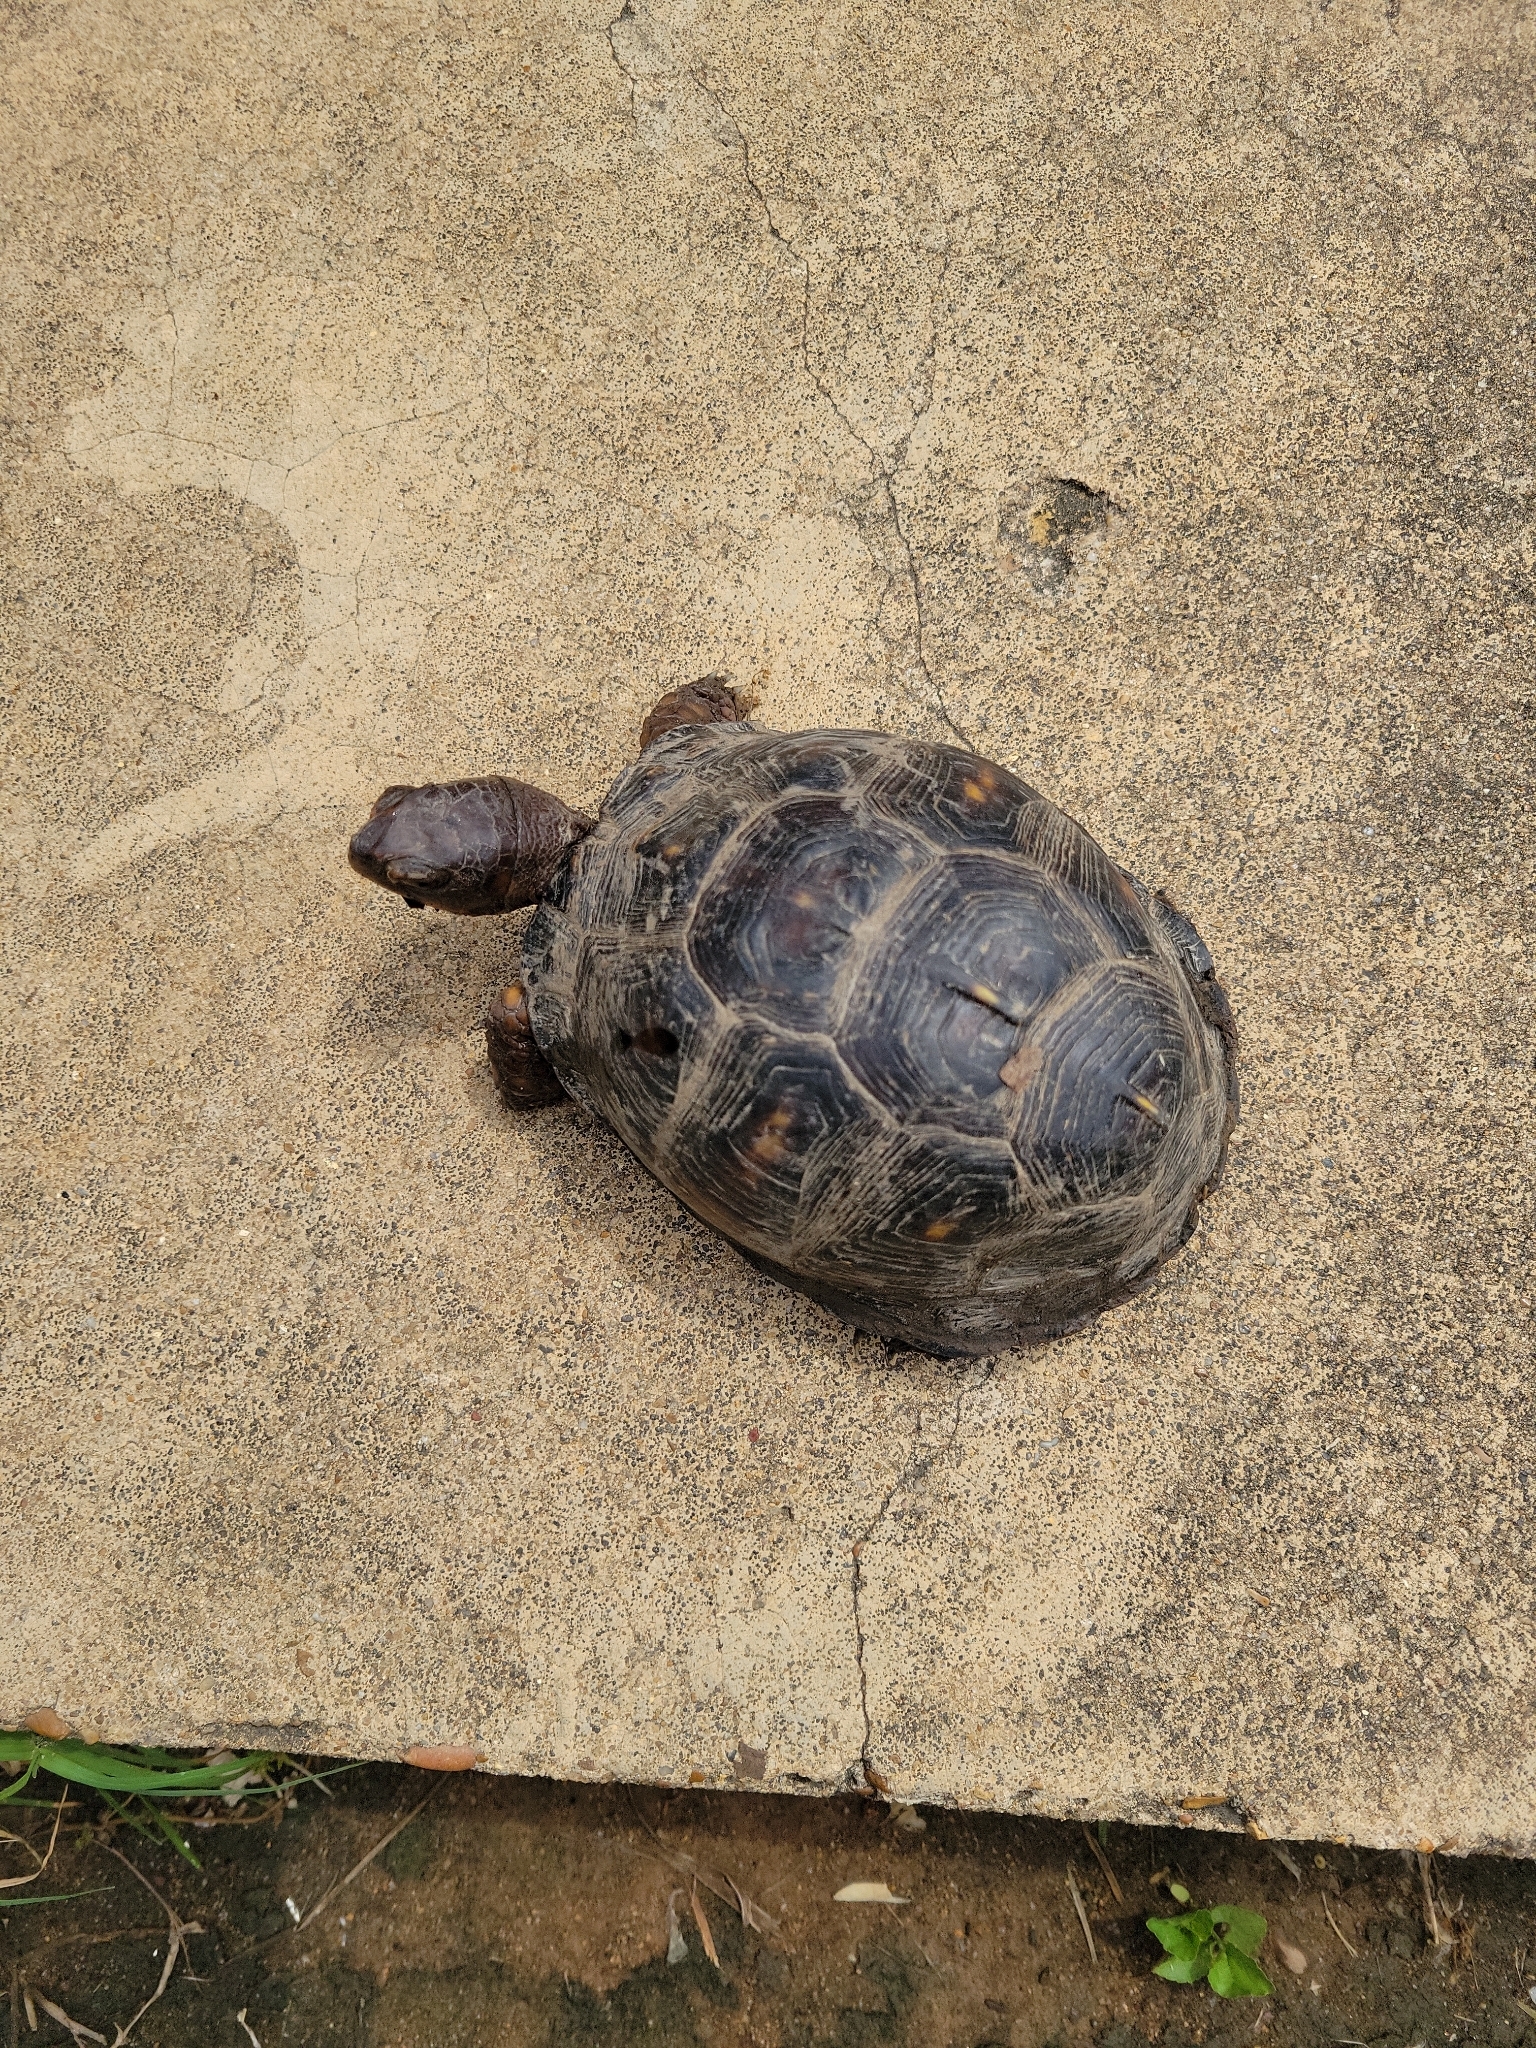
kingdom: Animalia
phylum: Chordata
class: Testudines
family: Emydidae
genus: Terrapene
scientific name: Terrapene carolina
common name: Common box turtle
